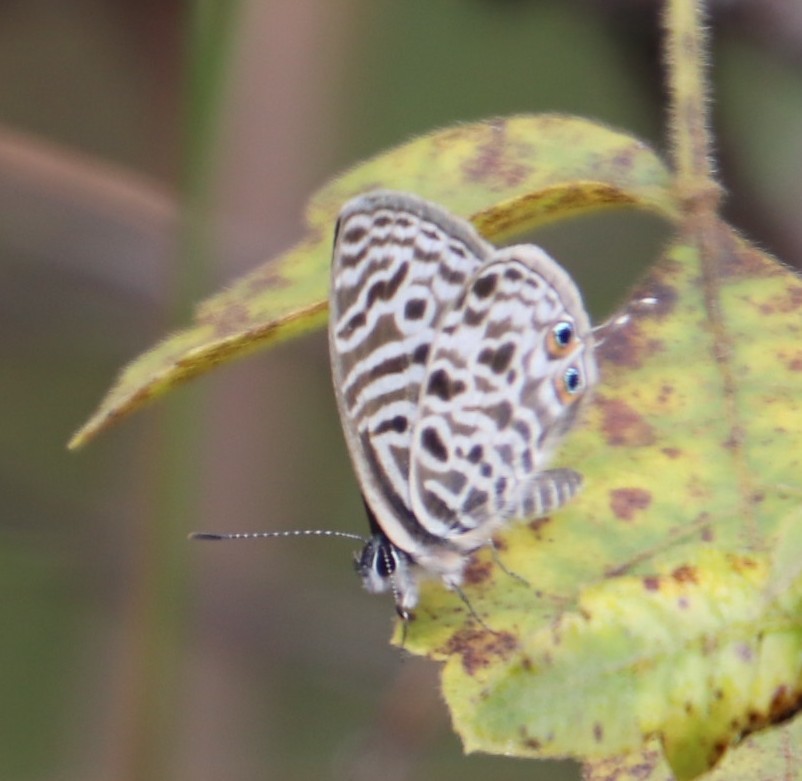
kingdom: Animalia
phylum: Arthropoda
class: Insecta
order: Lepidoptera
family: Lycaenidae
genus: Leptotes
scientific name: Leptotes
